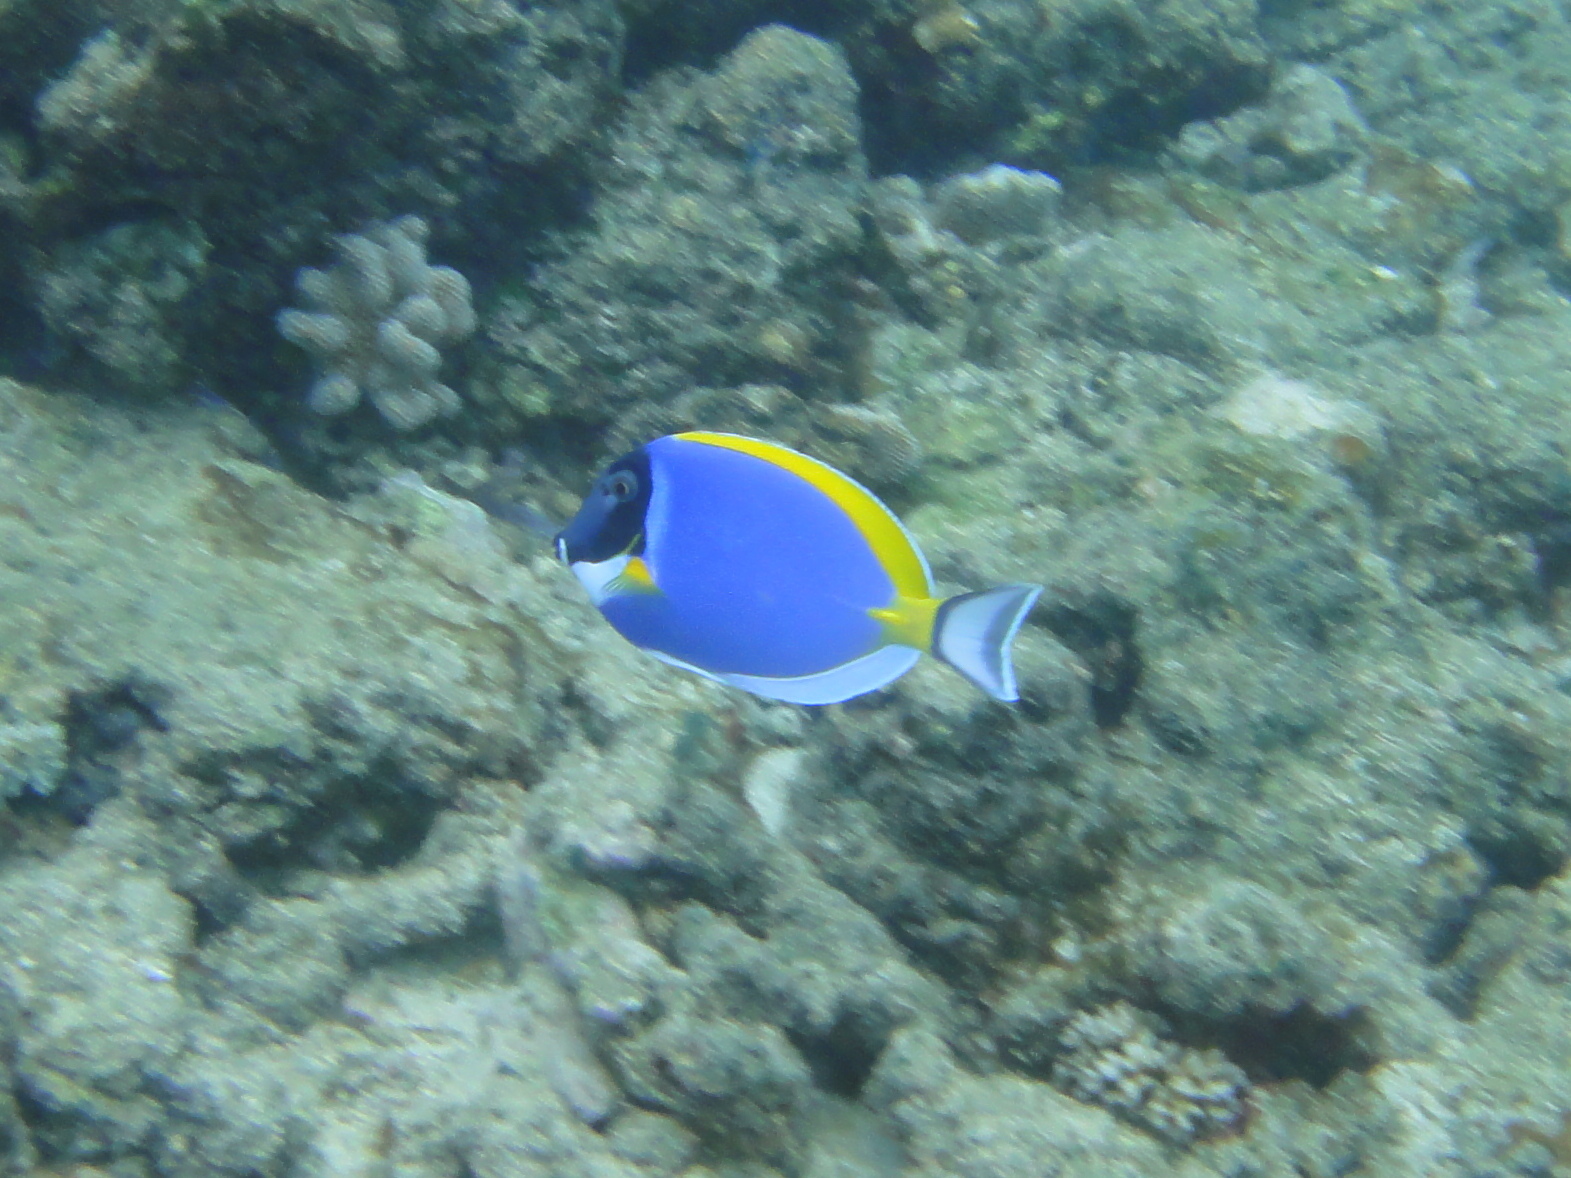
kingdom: Animalia
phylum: Chordata
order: Perciformes
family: Acanthuridae
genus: Acanthurus
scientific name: Acanthurus leucosternon
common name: Blue surgeonfish
